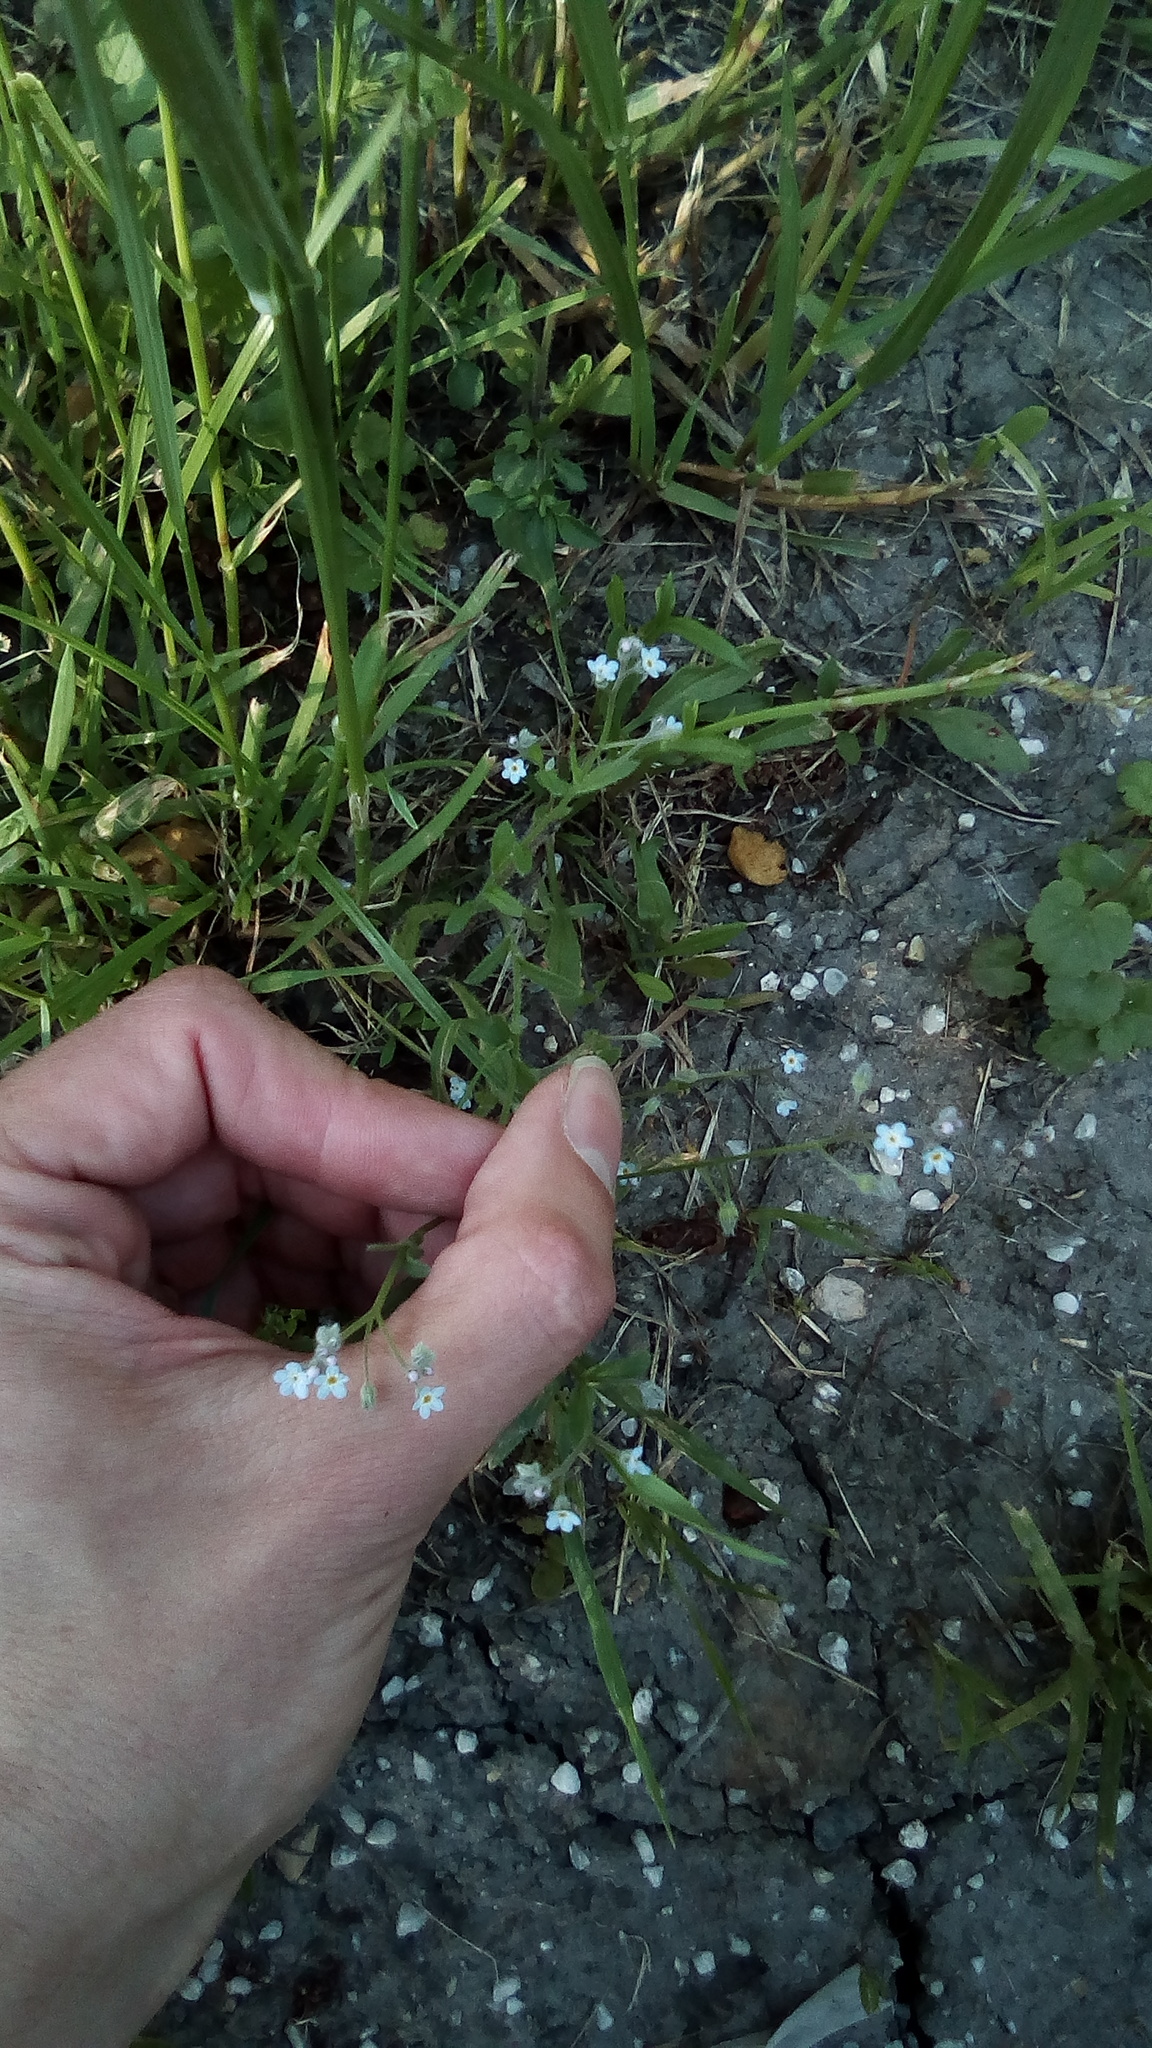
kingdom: Plantae
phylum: Tracheophyta
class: Magnoliopsida
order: Boraginales
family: Boraginaceae
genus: Myosotis
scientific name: Myosotis arvensis
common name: Field forget-me-not
